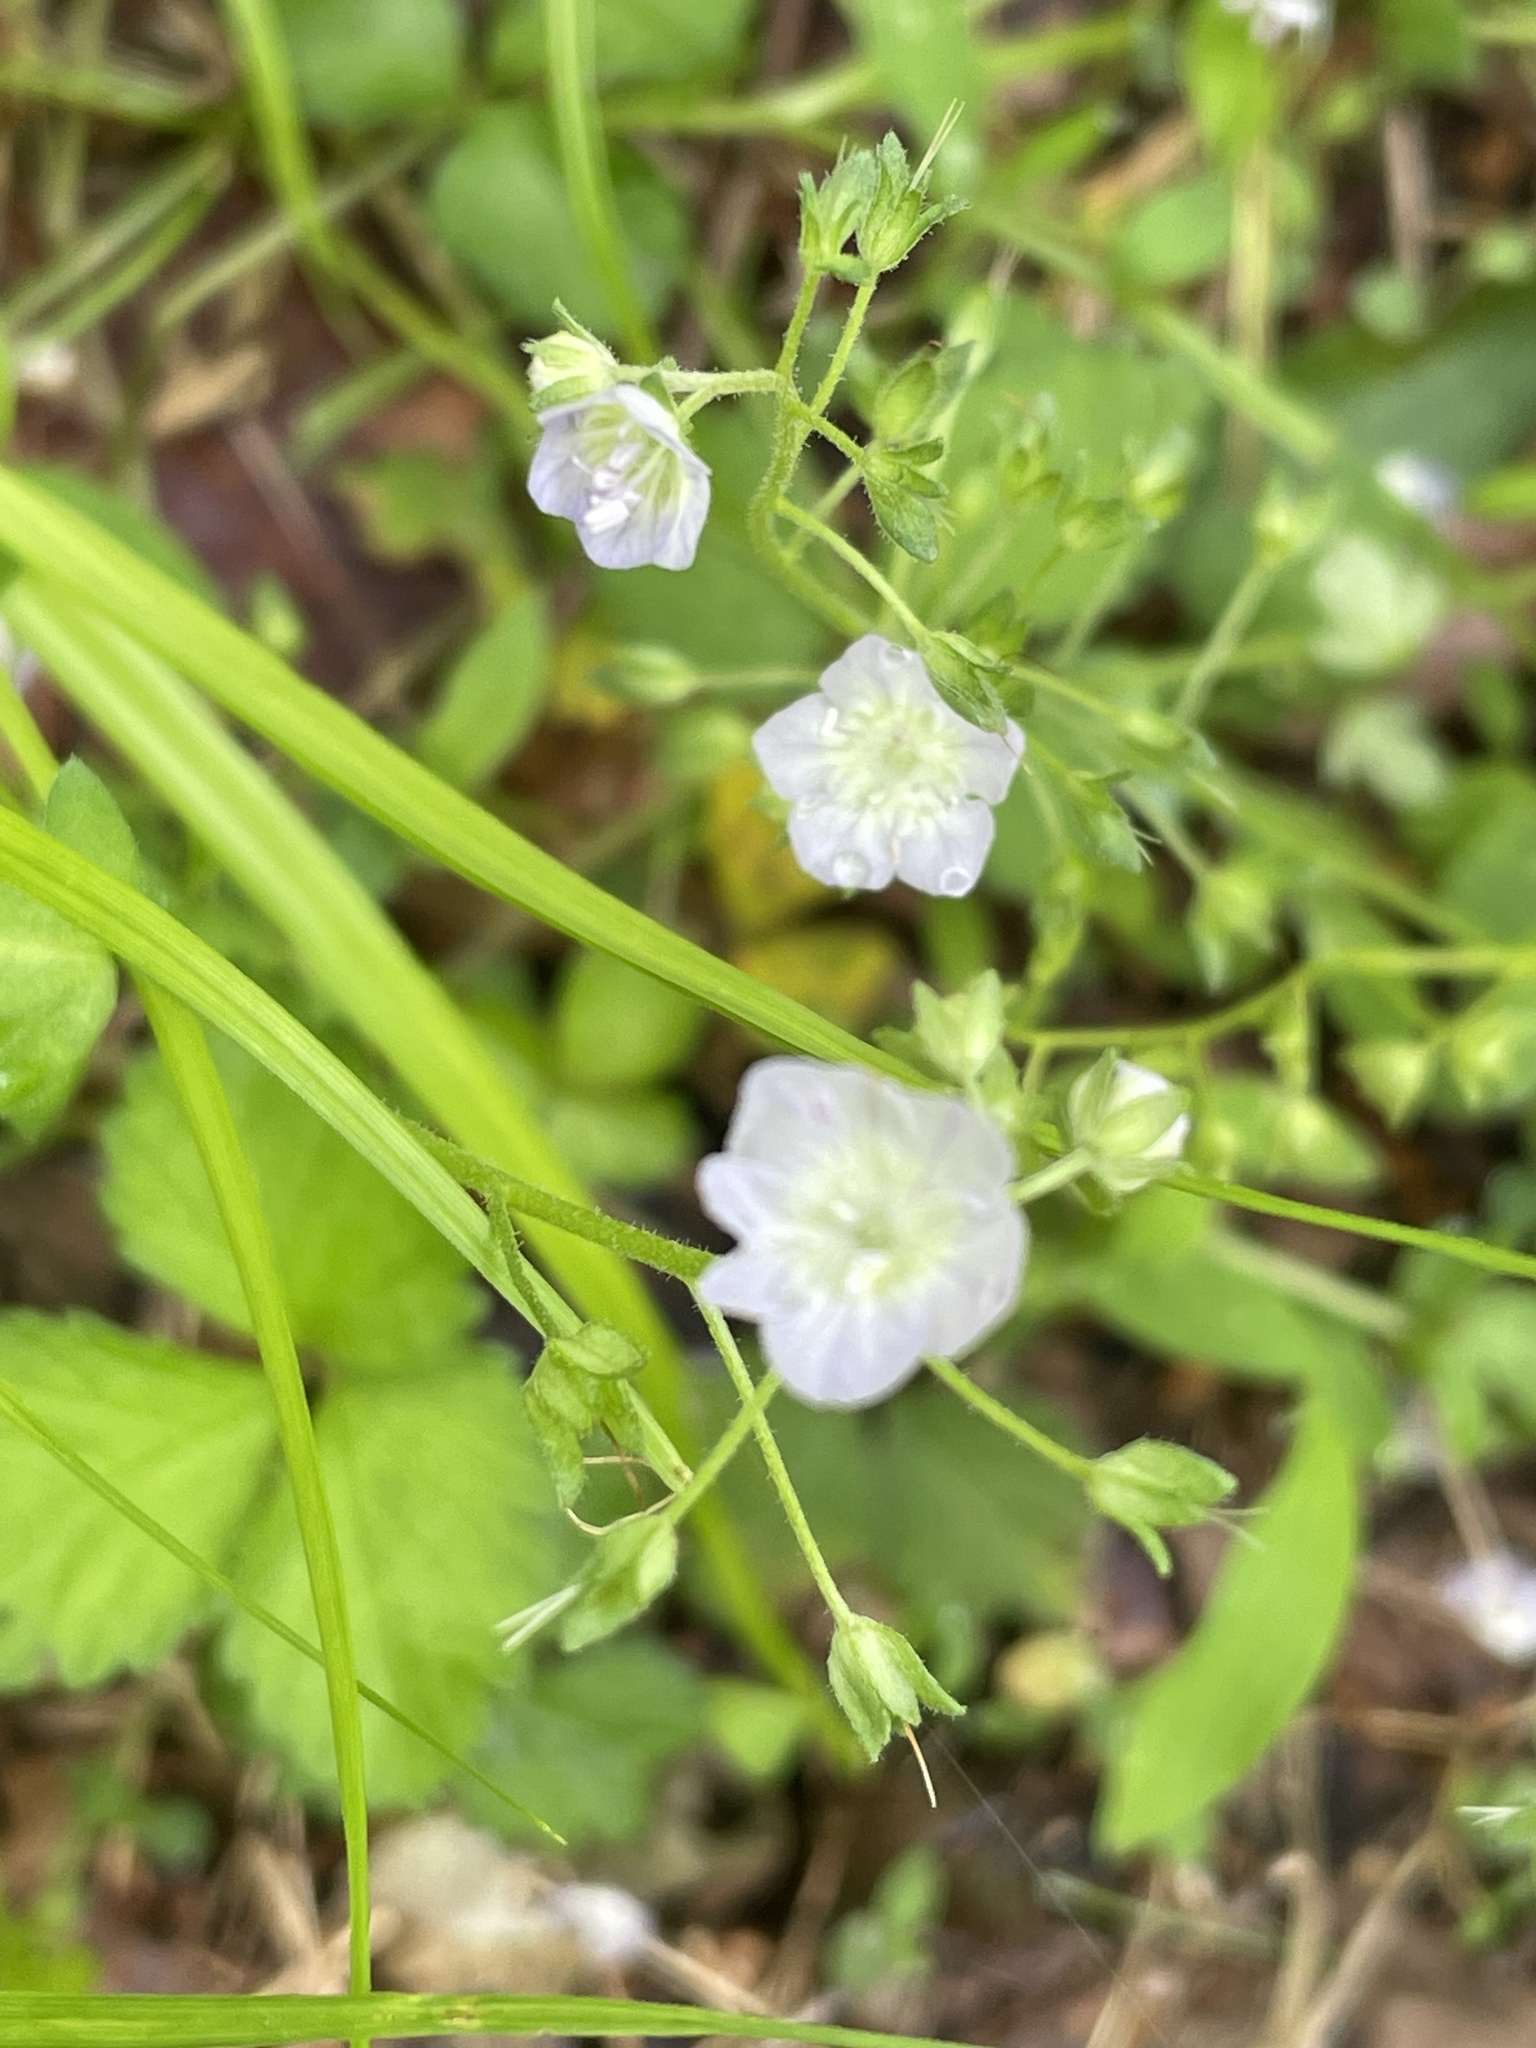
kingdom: Plantae
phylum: Tracheophyta
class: Magnoliopsida
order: Boraginales
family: Hydrophyllaceae
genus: Phacelia
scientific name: Phacelia dubia
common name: Appalachian phacelia
